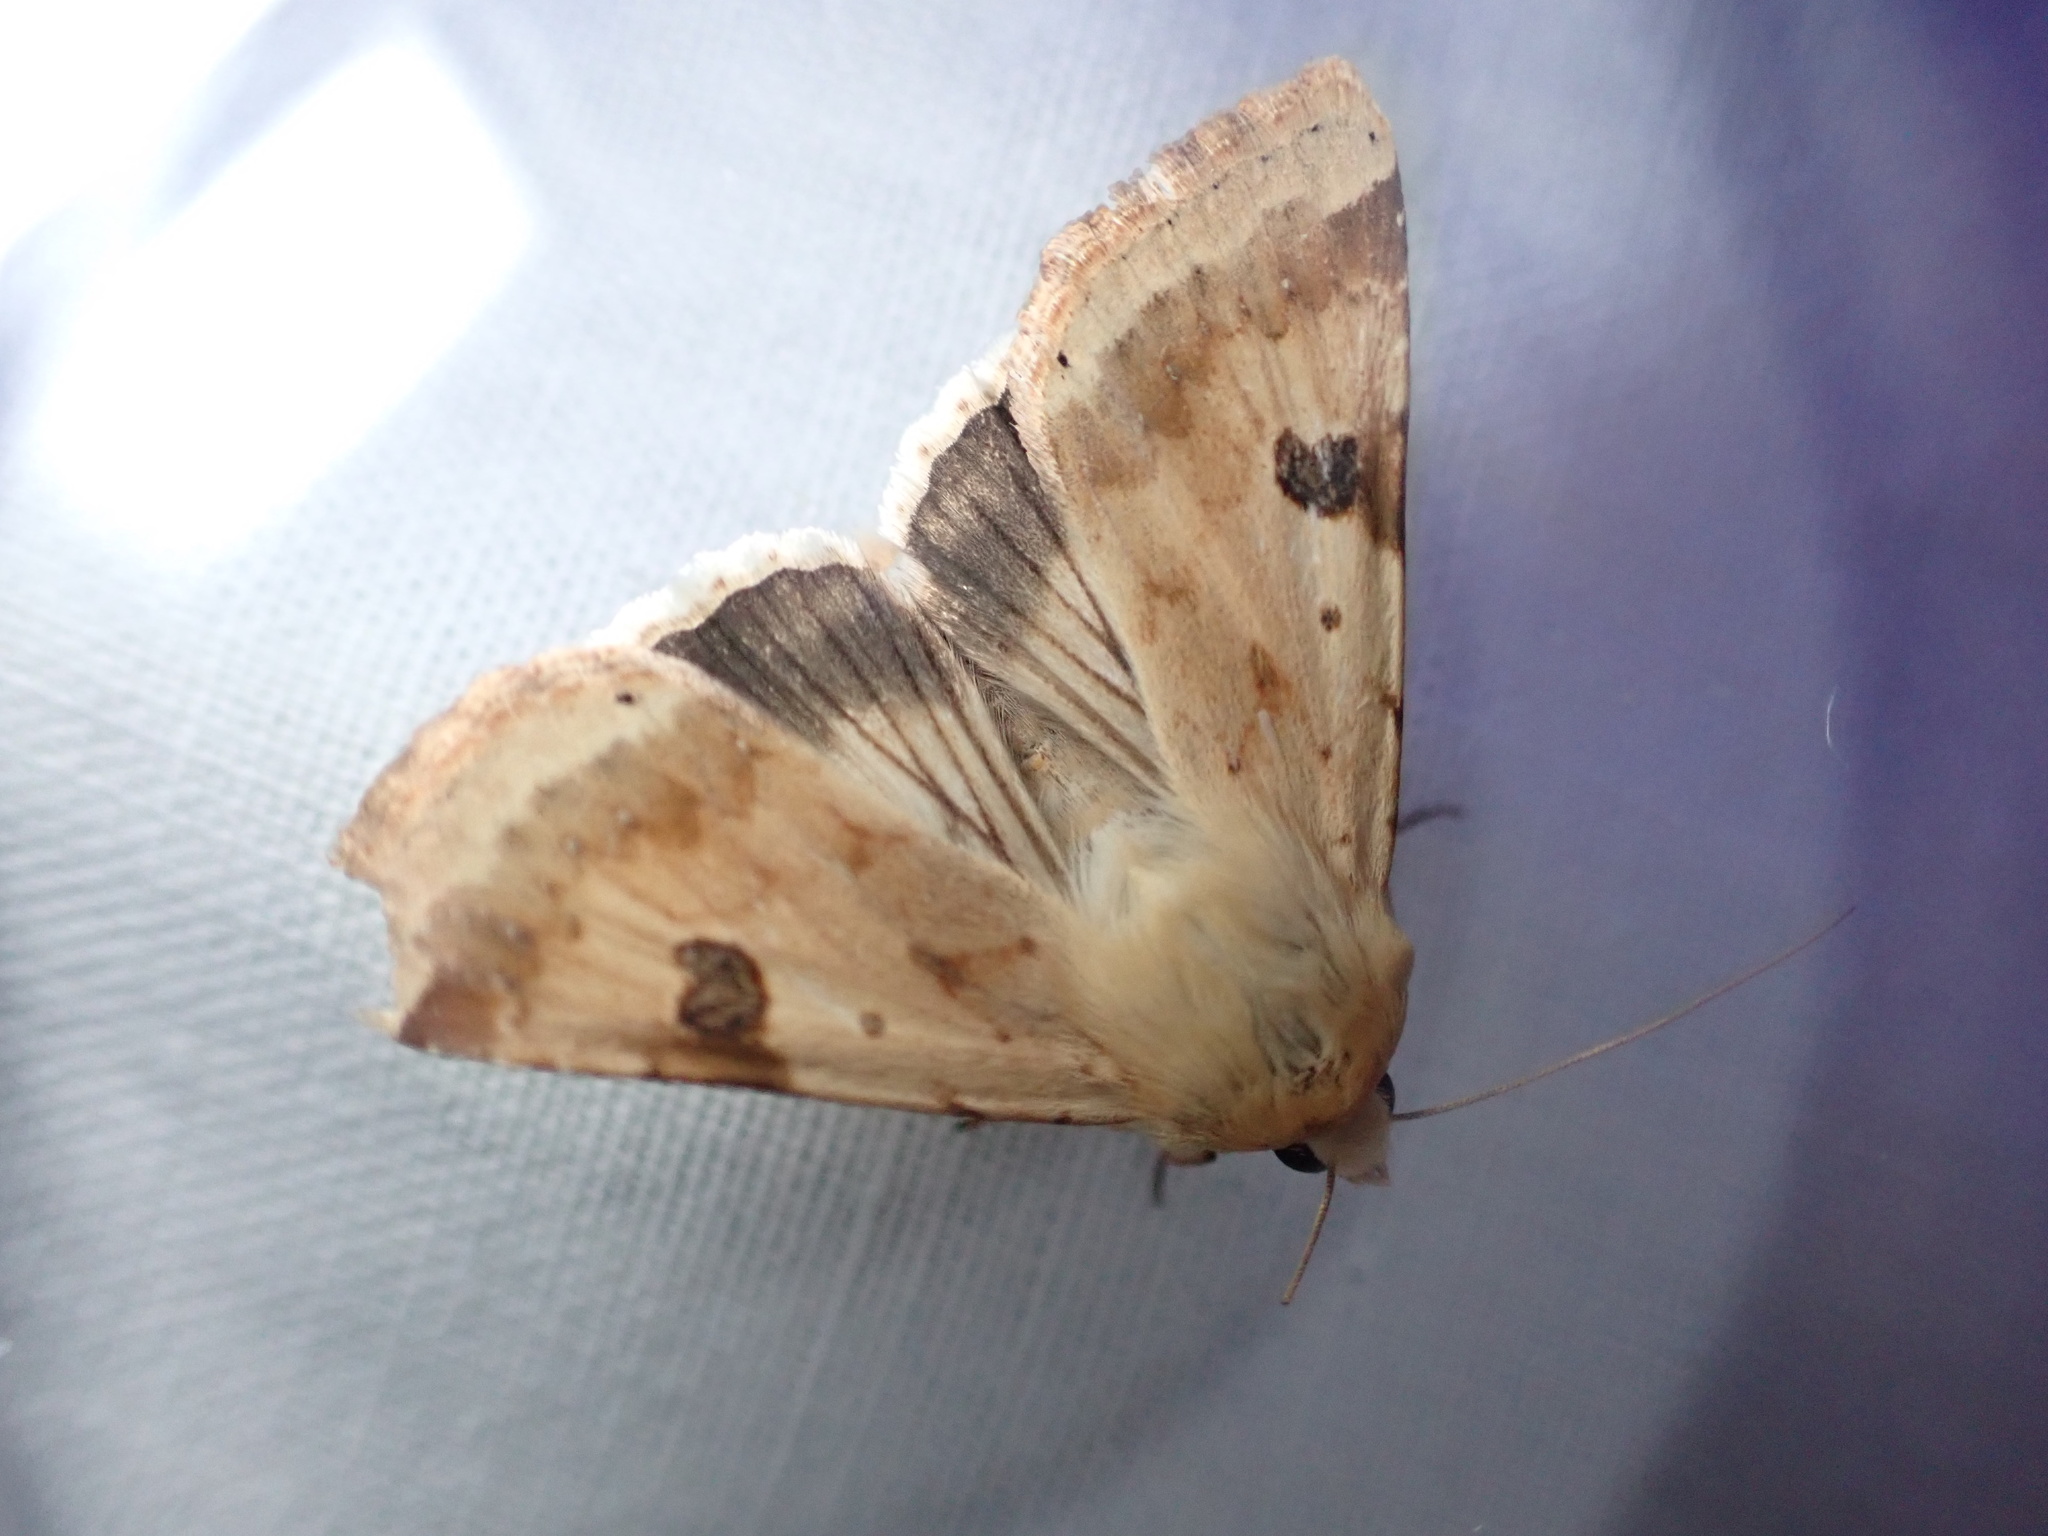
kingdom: Animalia
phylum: Arthropoda
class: Insecta
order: Lepidoptera
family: Noctuidae
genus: Heliothis
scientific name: Heliothis peltigera
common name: Bordered straw
